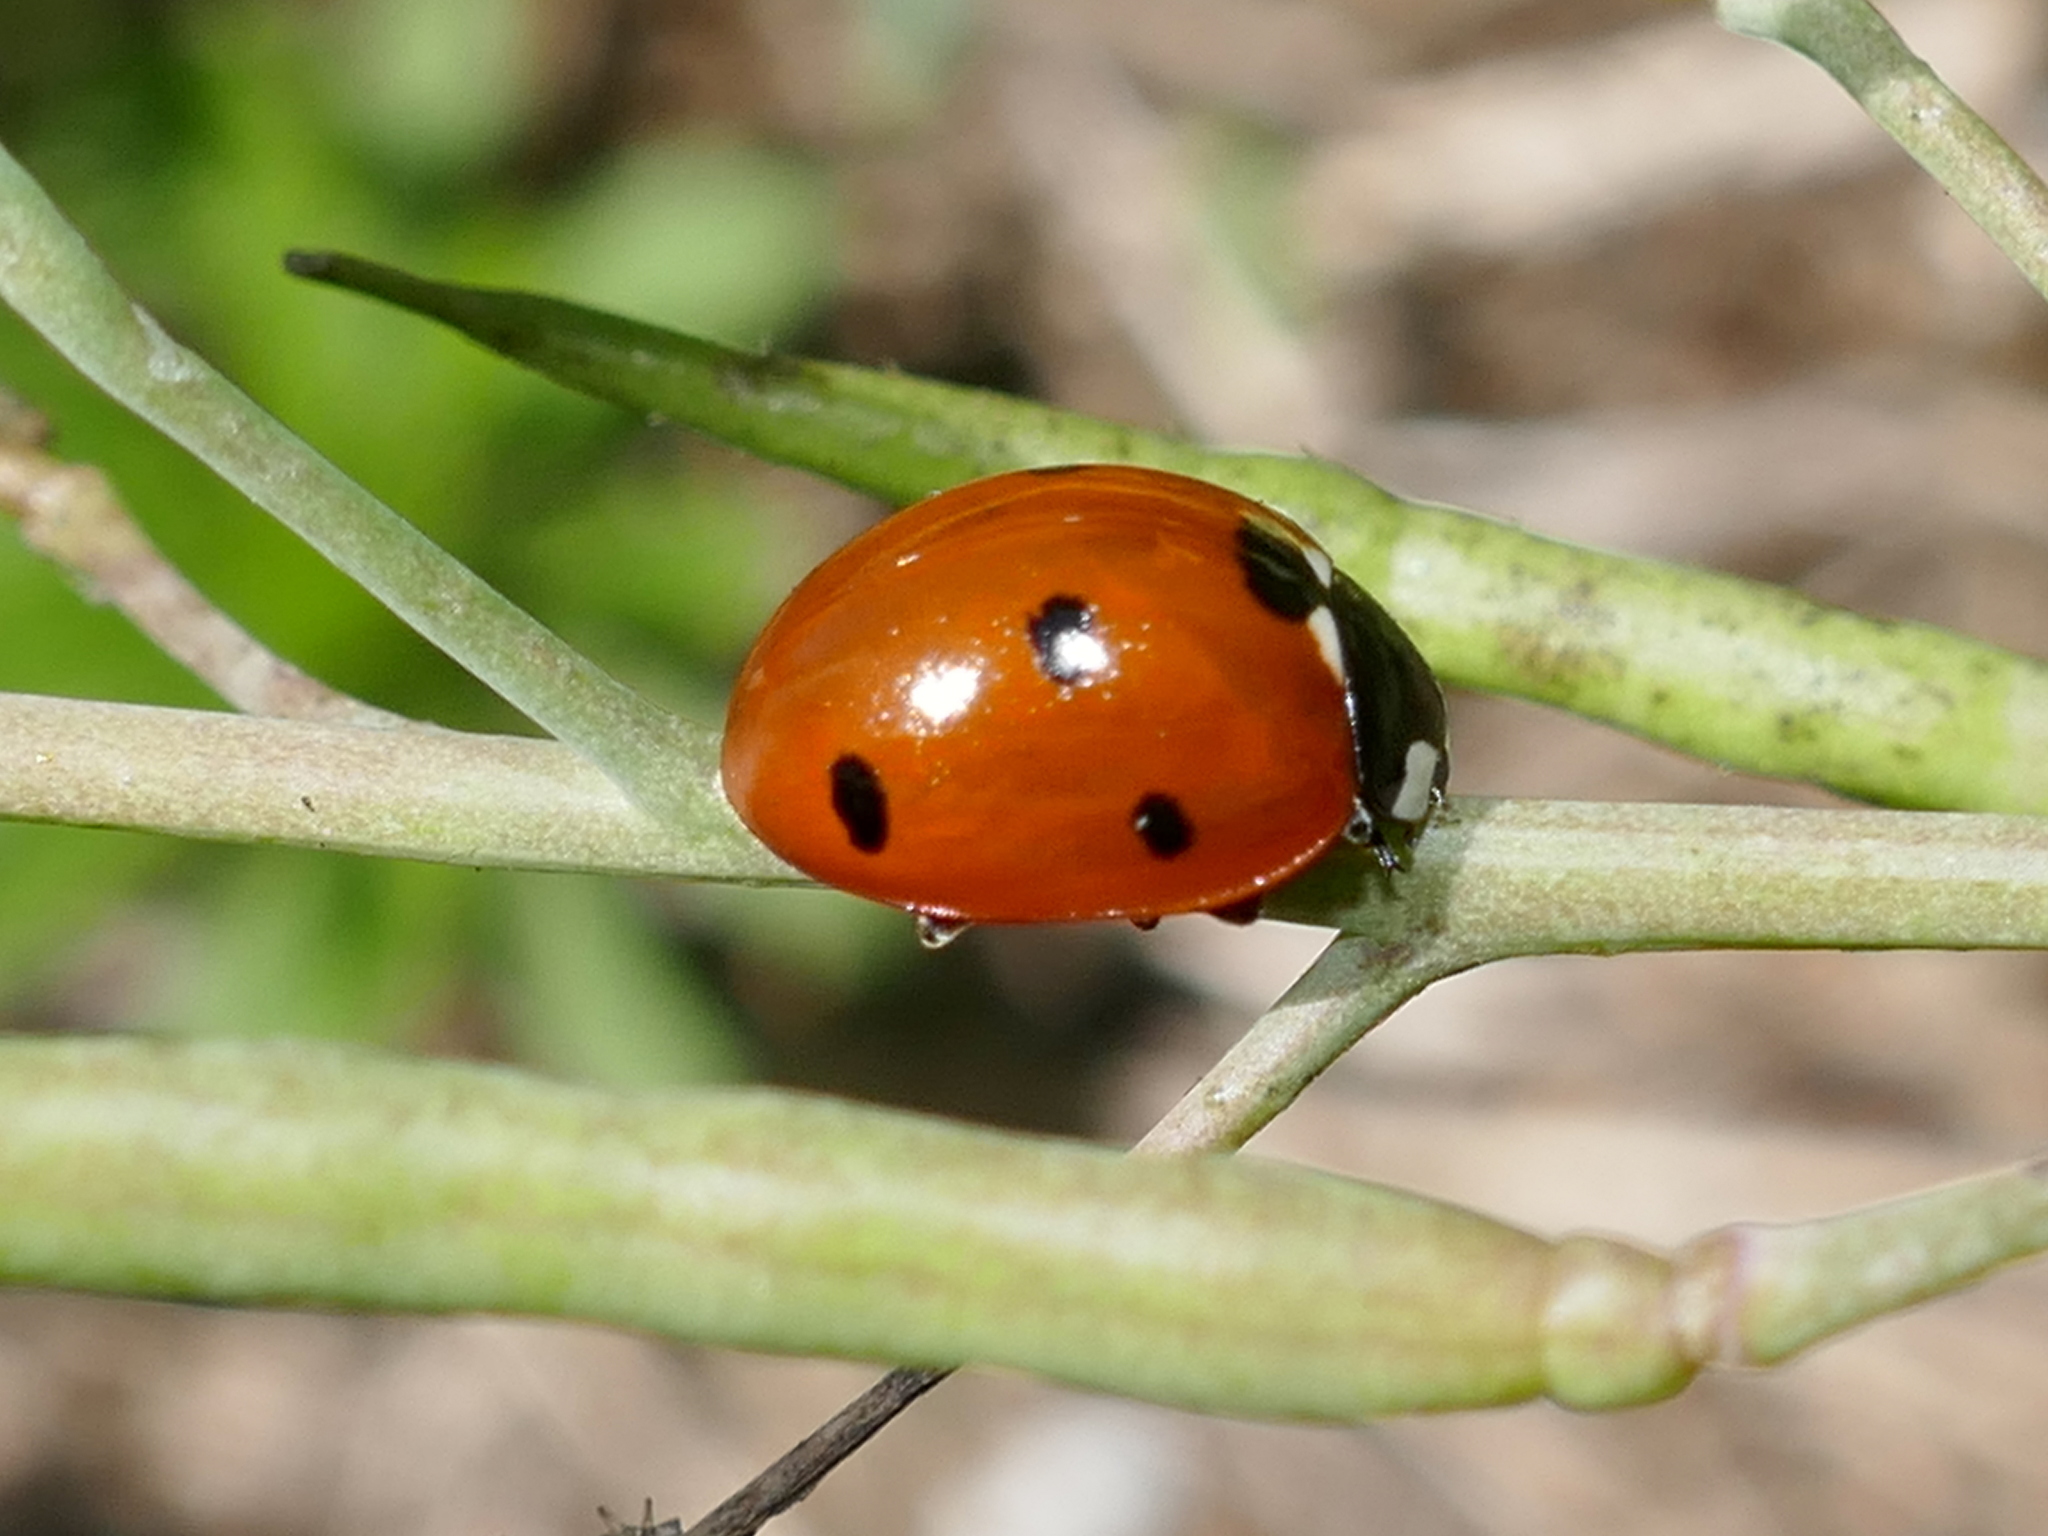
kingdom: Animalia
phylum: Arthropoda
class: Insecta
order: Coleoptera
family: Coccinellidae
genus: Coccinella
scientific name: Coccinella septempunctata
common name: Sevenspotted lady beetle
